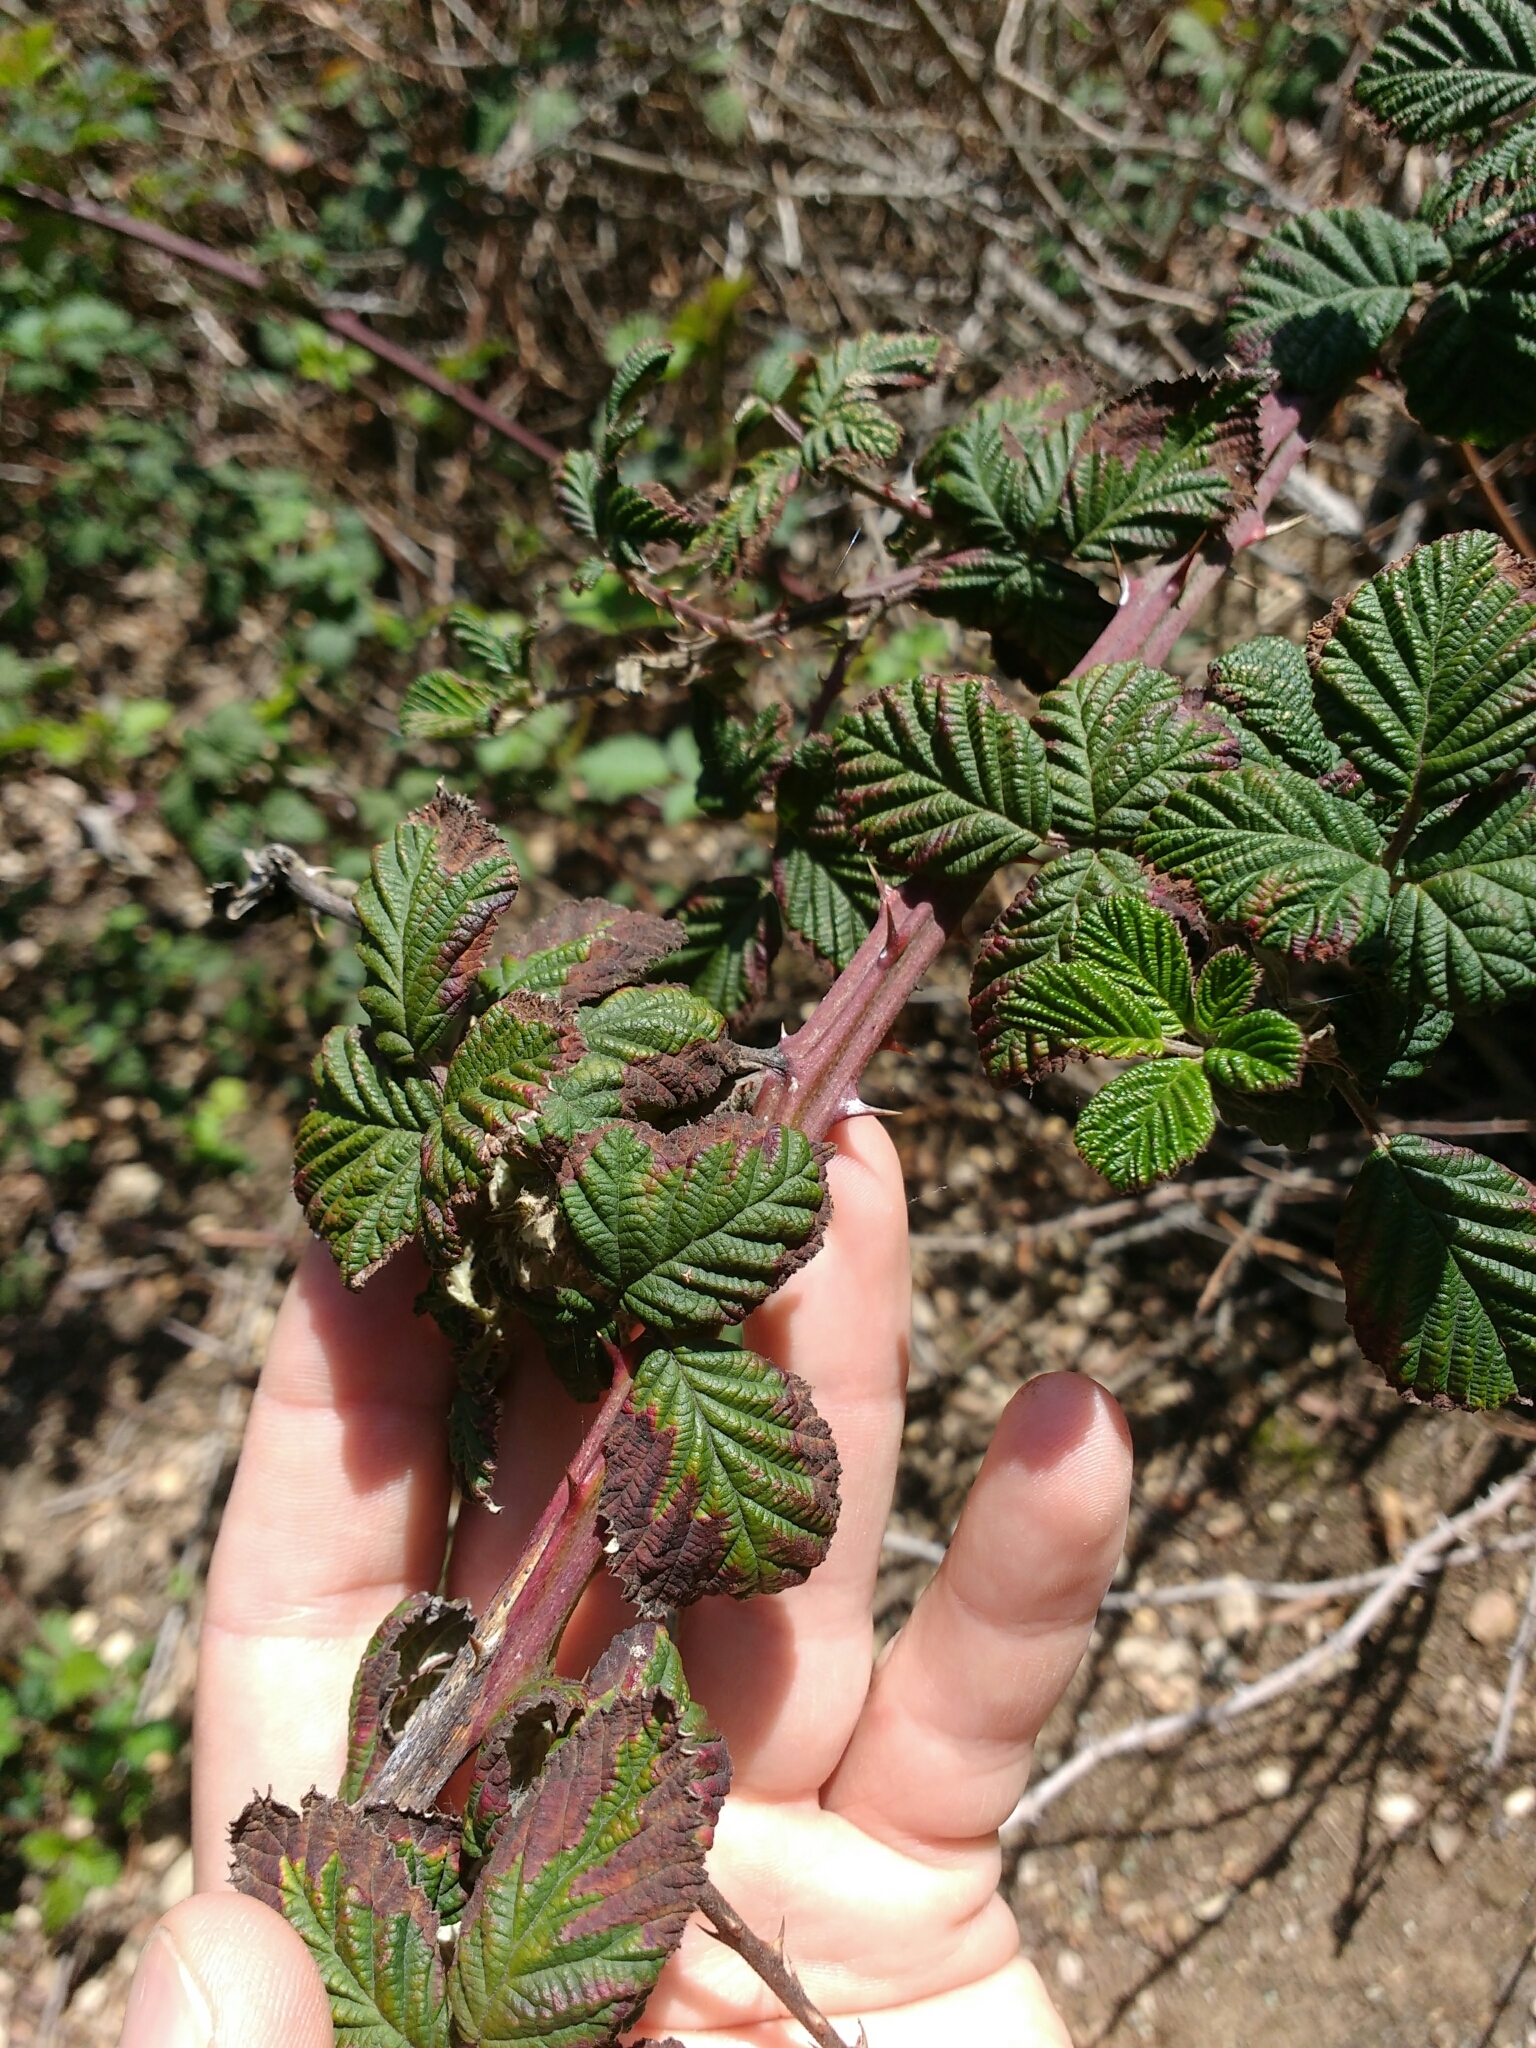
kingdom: Plantae
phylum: Tracheophyta
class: Magnoliopsida
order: Rosales
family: Rosaceae
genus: Rubus
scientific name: Rubus armeniacus
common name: Himalayan blackberry
